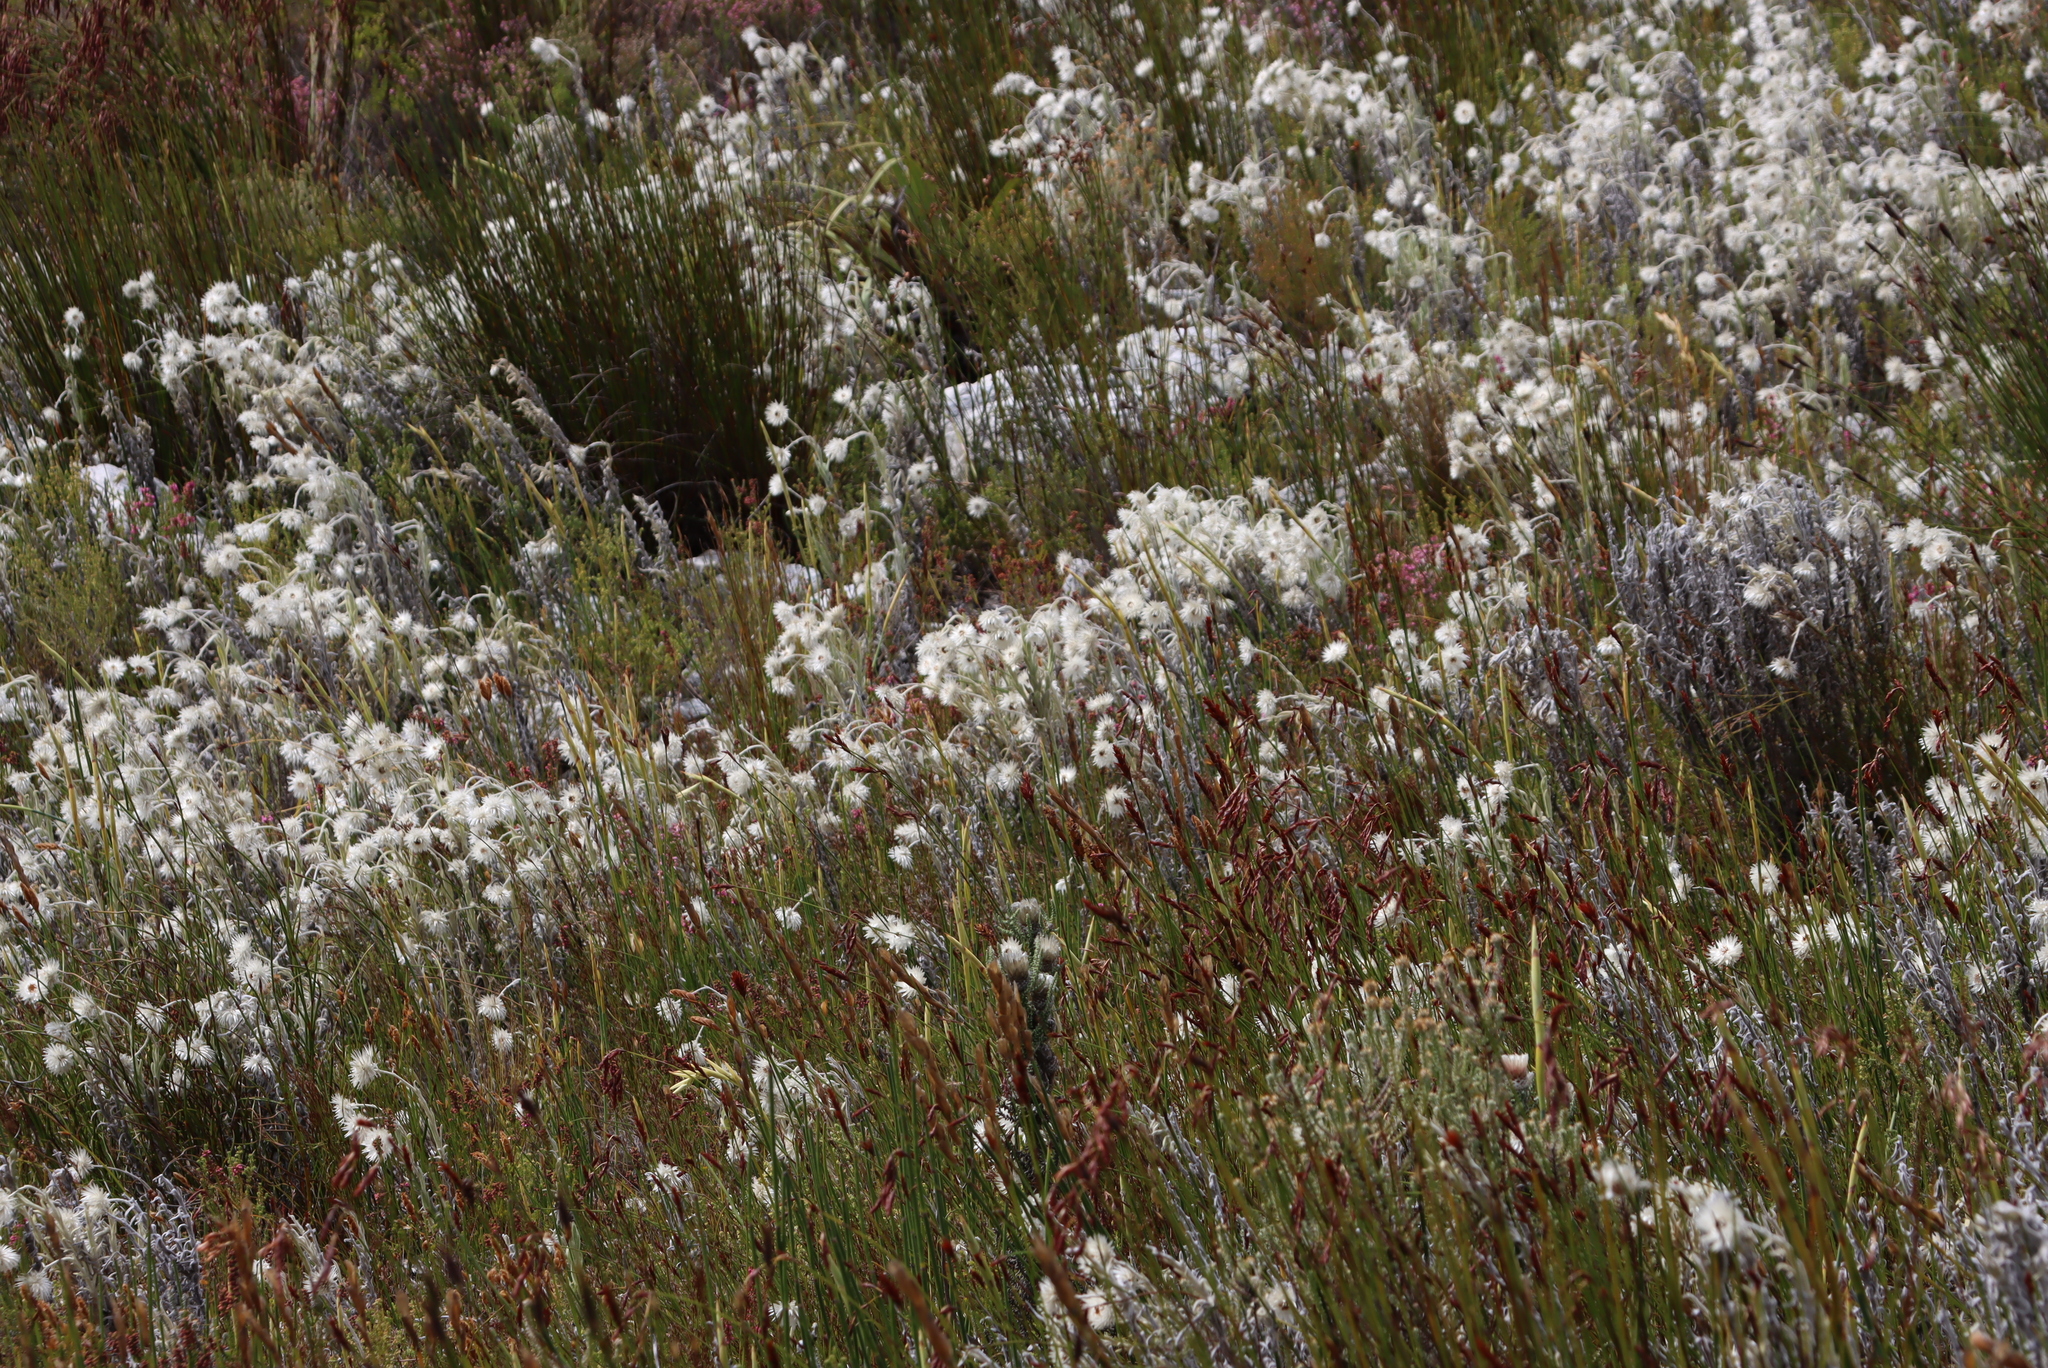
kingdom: Plantae
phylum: Tracheophyta
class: Magnoliopsida
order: Asterales
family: Asteraceae
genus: Syncarpha
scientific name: Syncarpha vestita
